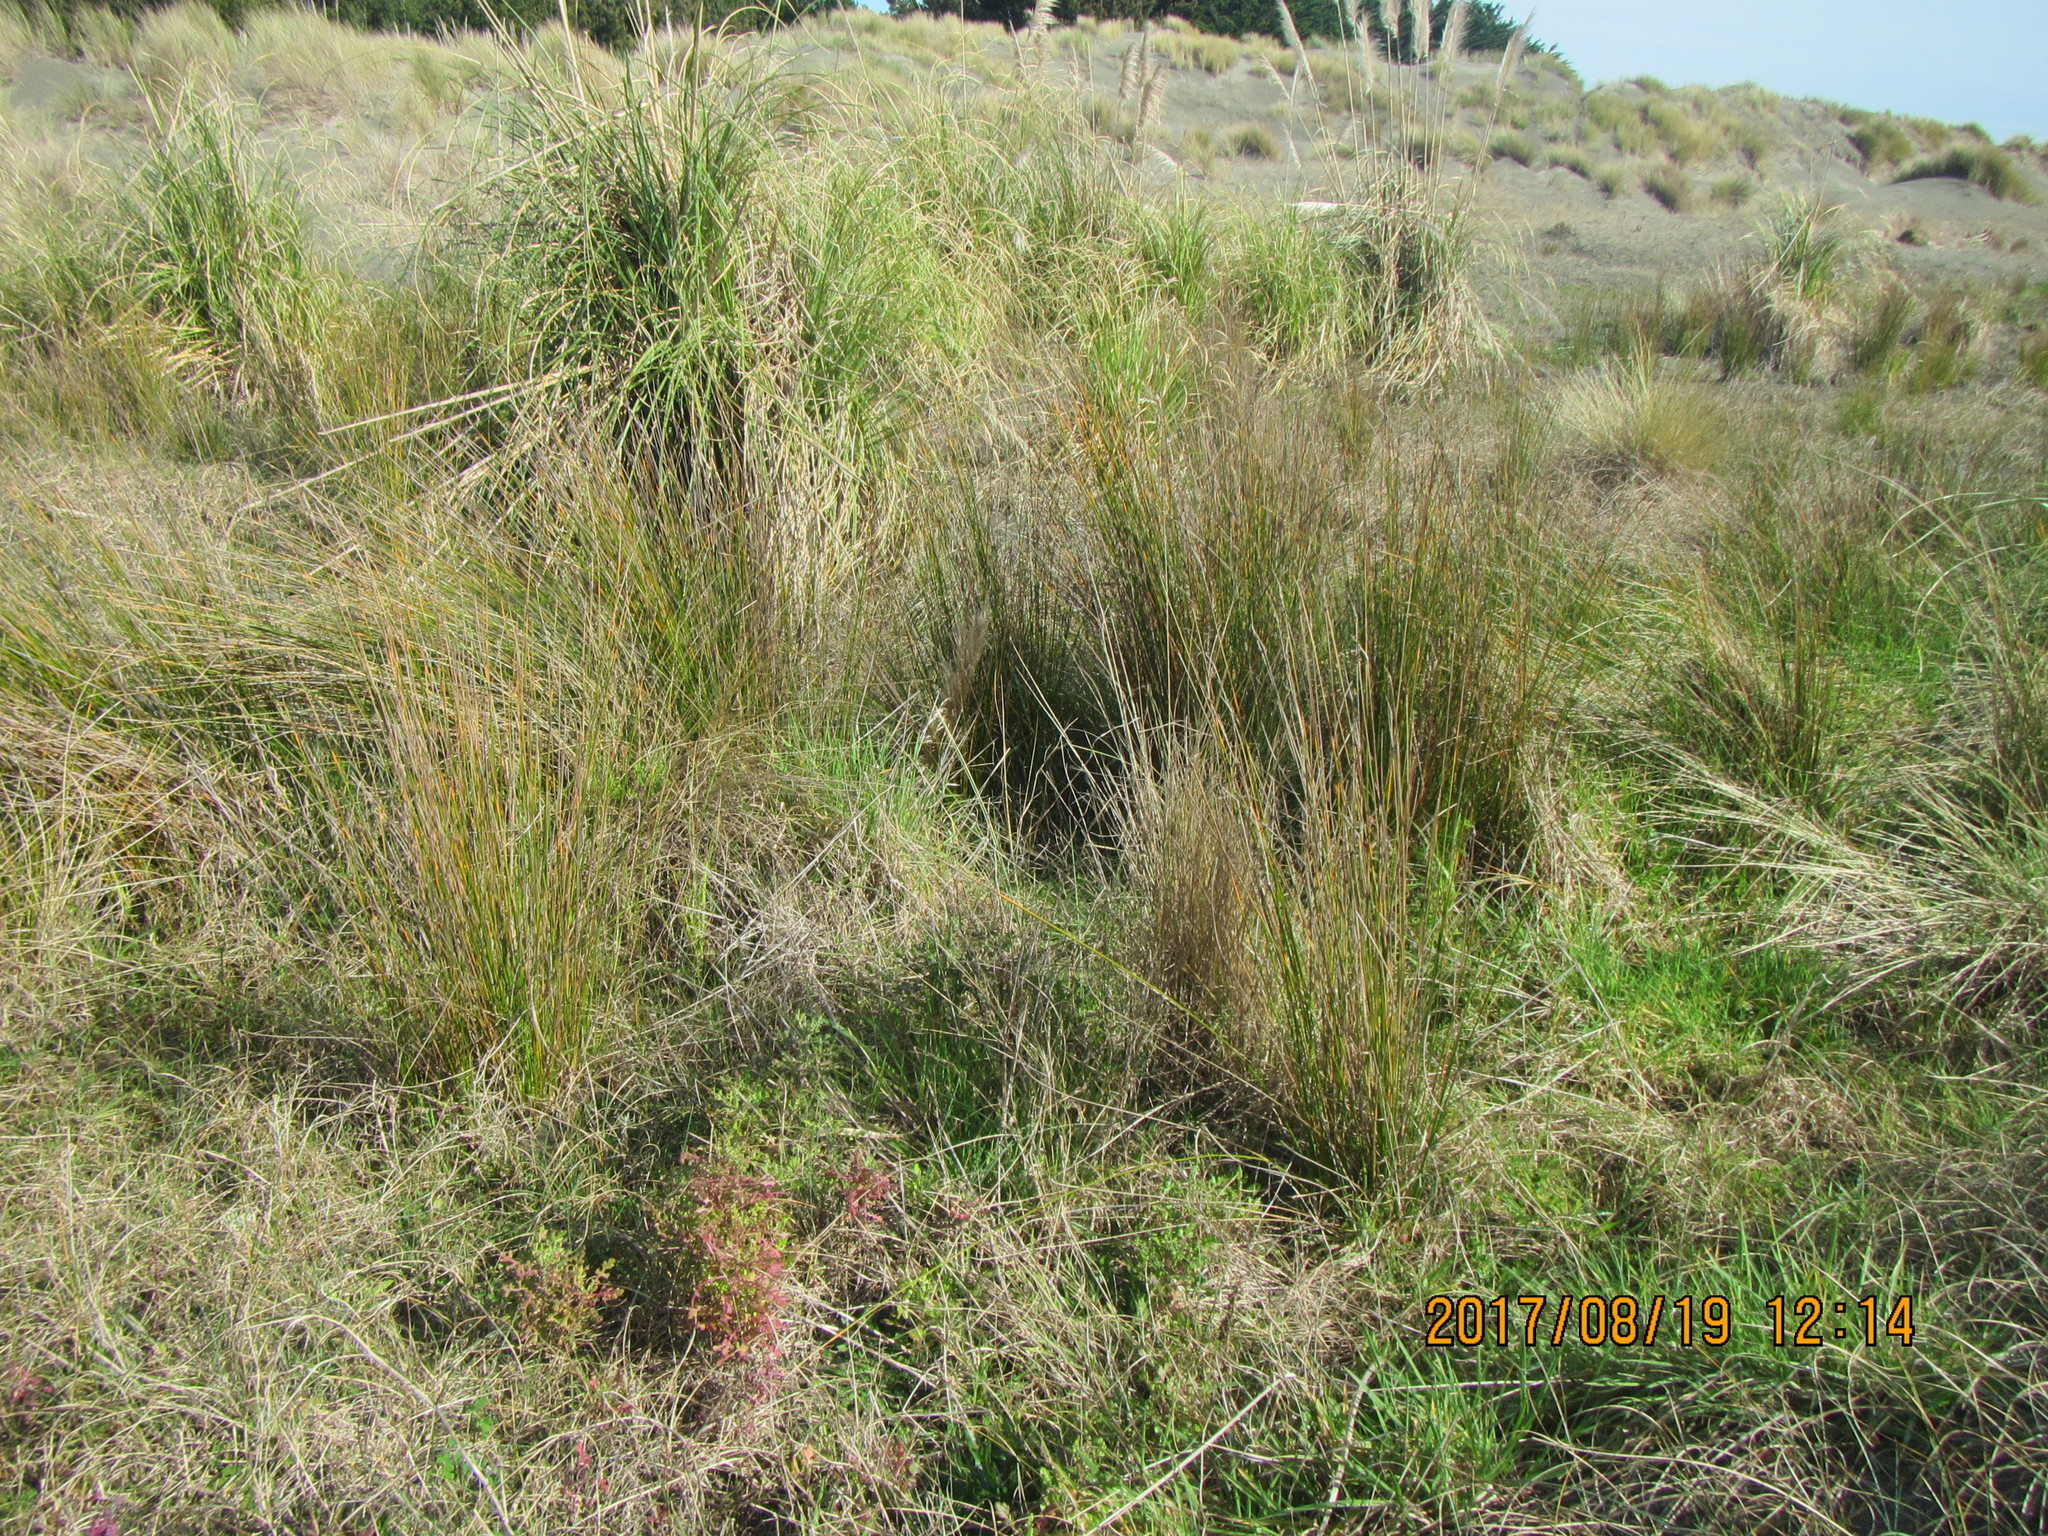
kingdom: Plantae
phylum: Tracheophyta
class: Liliopsida
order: Poales
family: Cyperaceae
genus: Ficinia
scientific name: Ficinia nodosa
